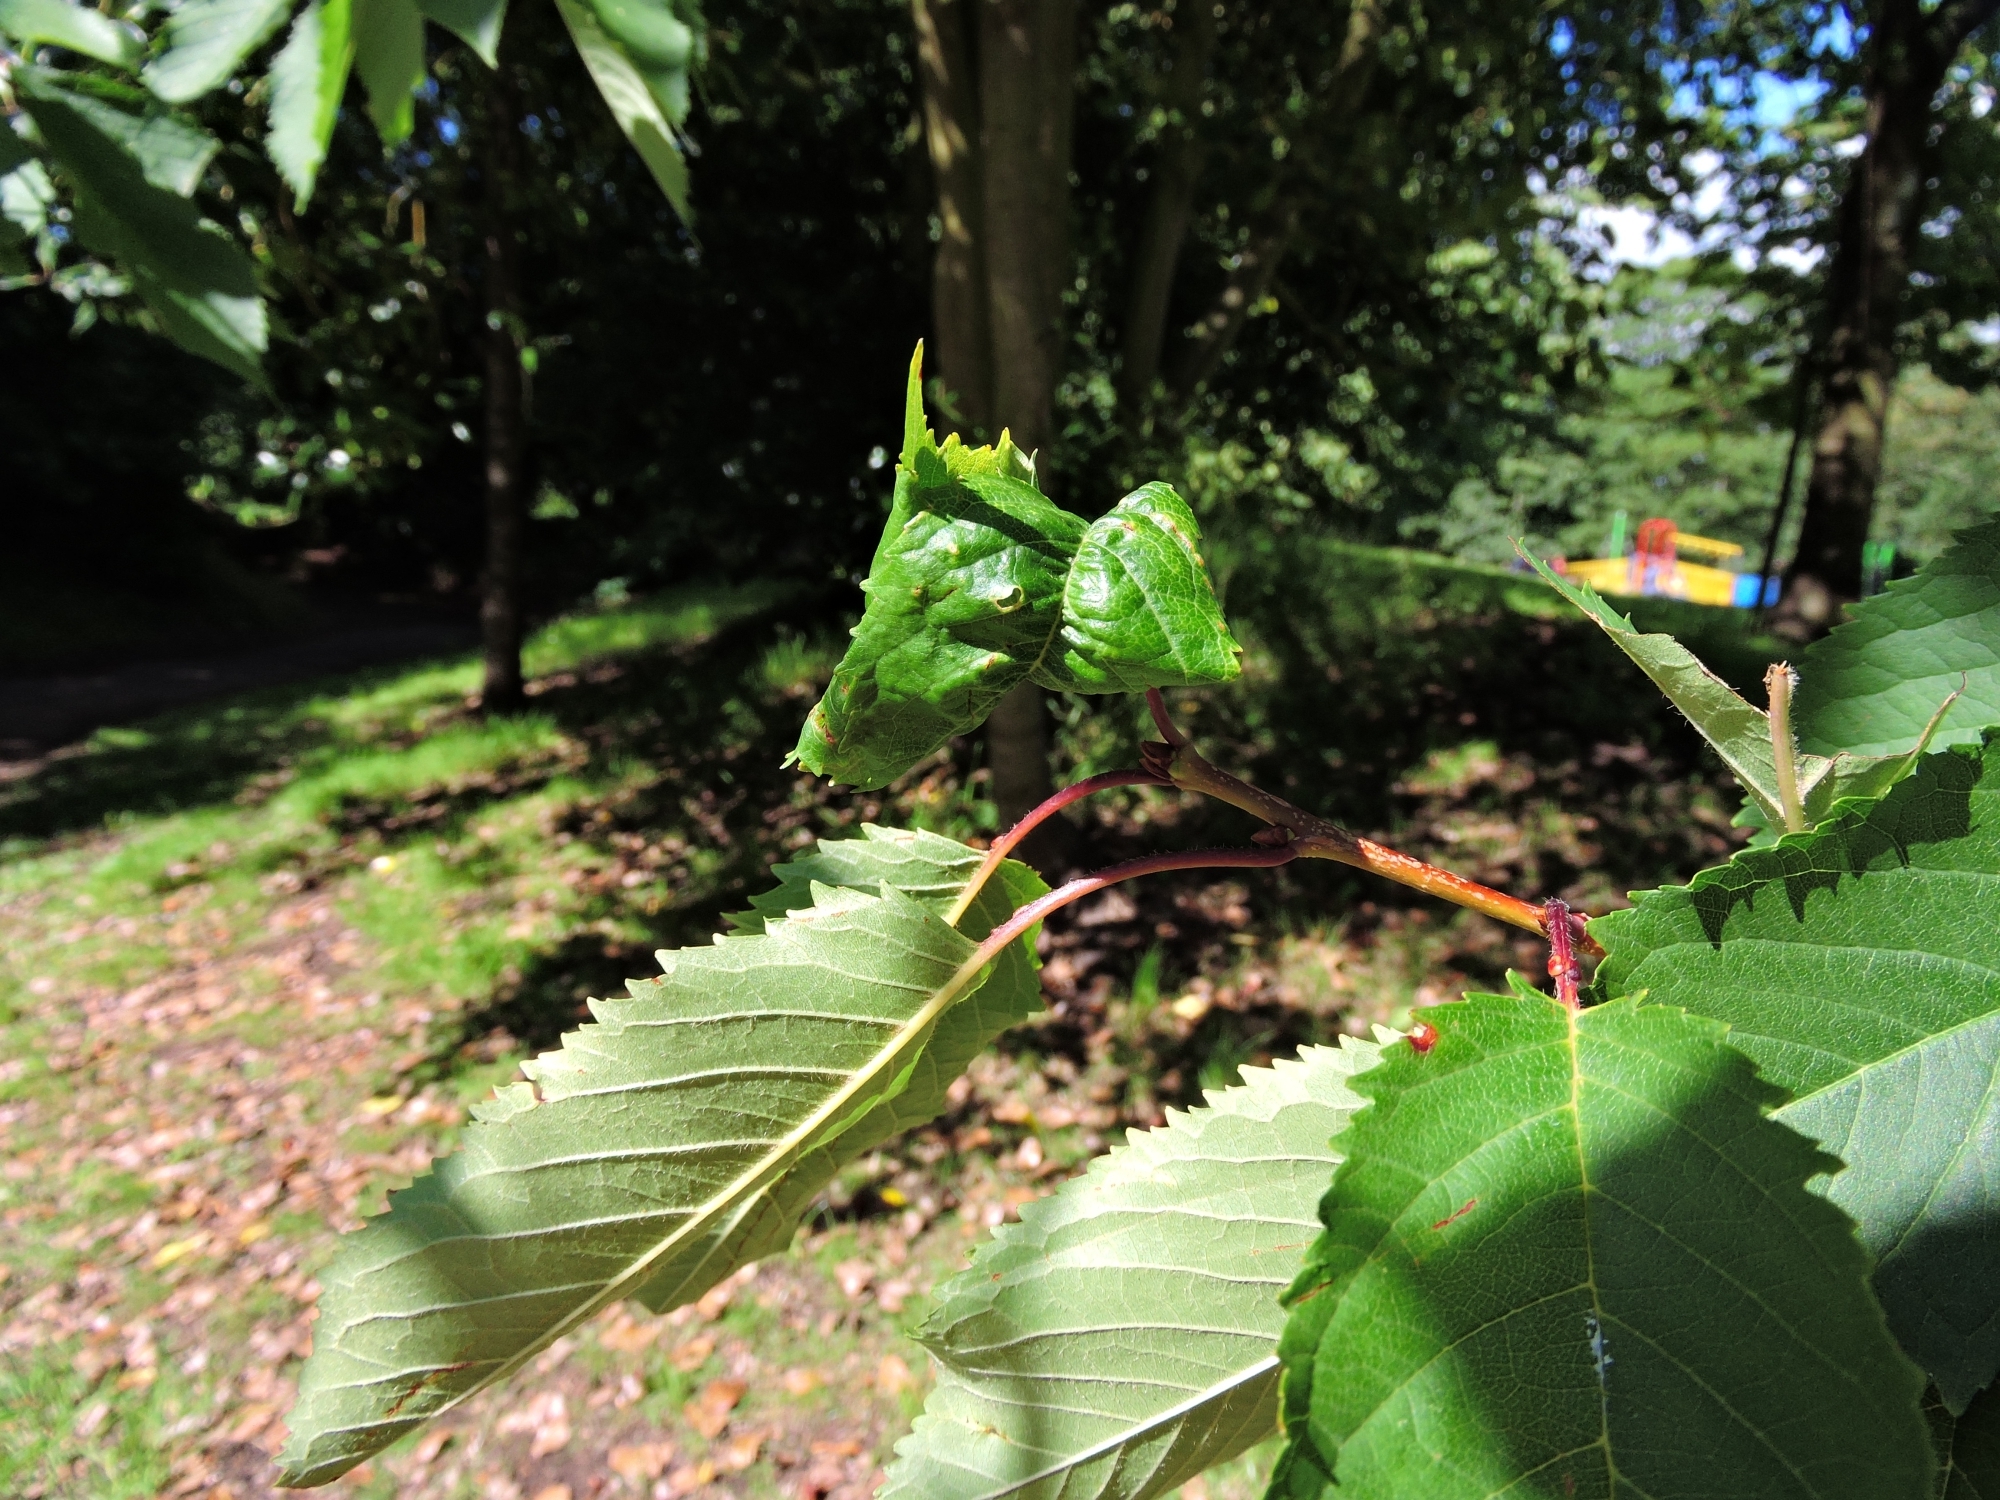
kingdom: Animalia
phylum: Arthropoda
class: Insecta
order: Hemiptera
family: Aphididae
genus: Myzus
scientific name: Myzus cerasi
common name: Black cherry aphid
